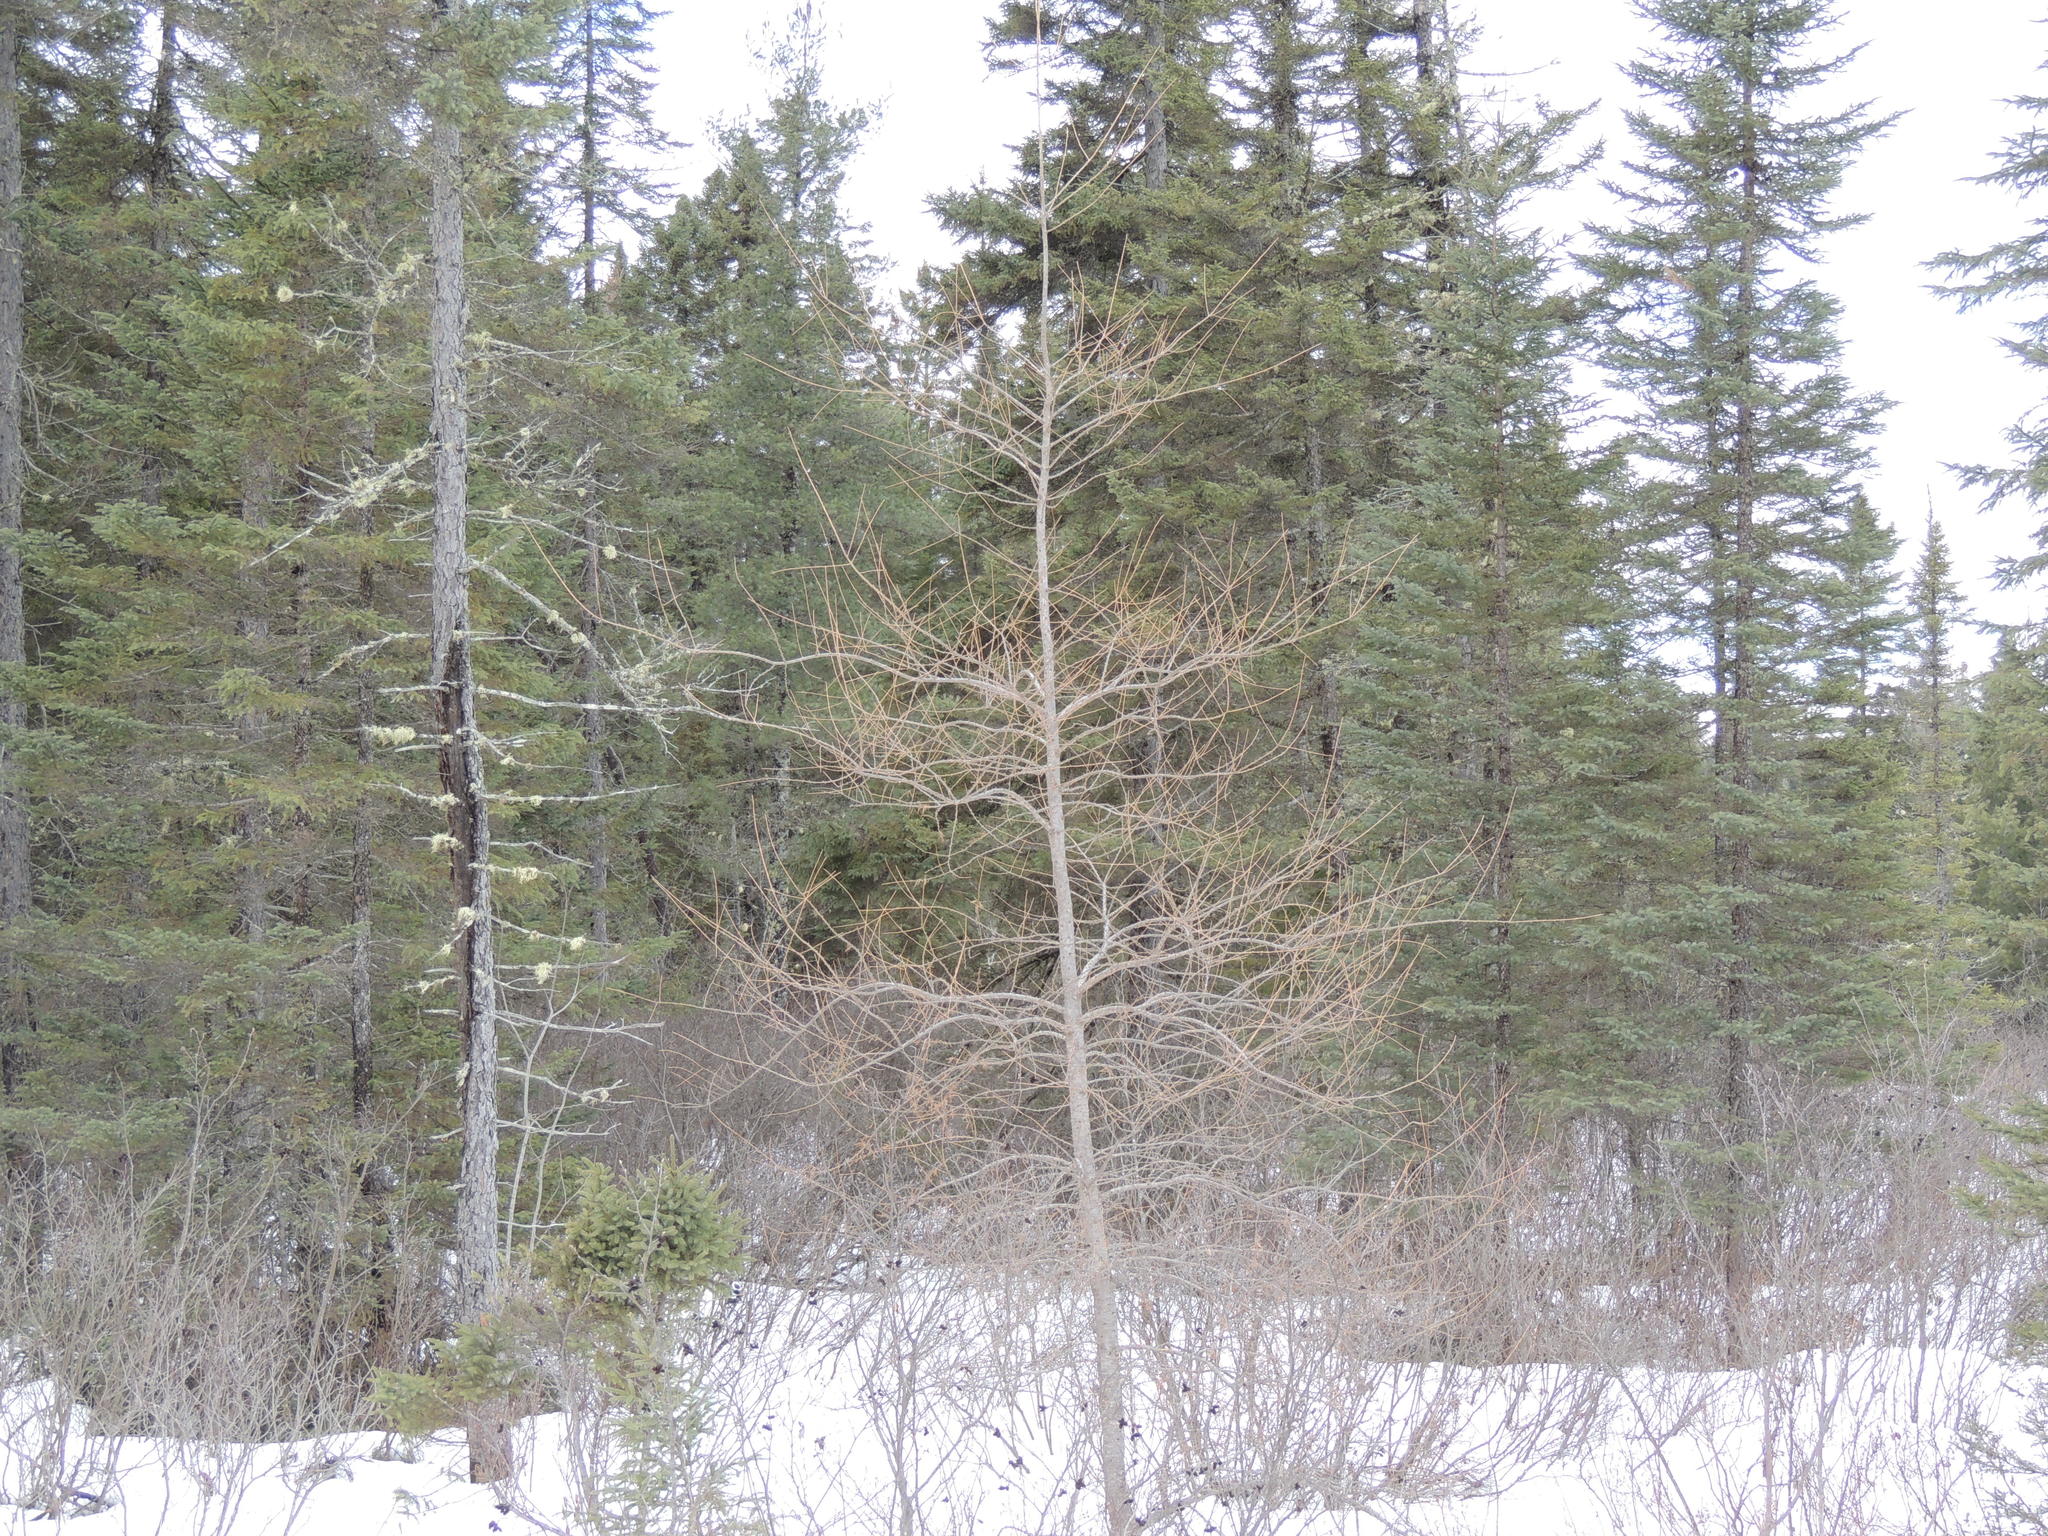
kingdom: Plantae
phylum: Tracheophyta
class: Pinopsida
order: Pinales
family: Pinaceae
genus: Larix
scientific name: Larix laricina
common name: American larch
